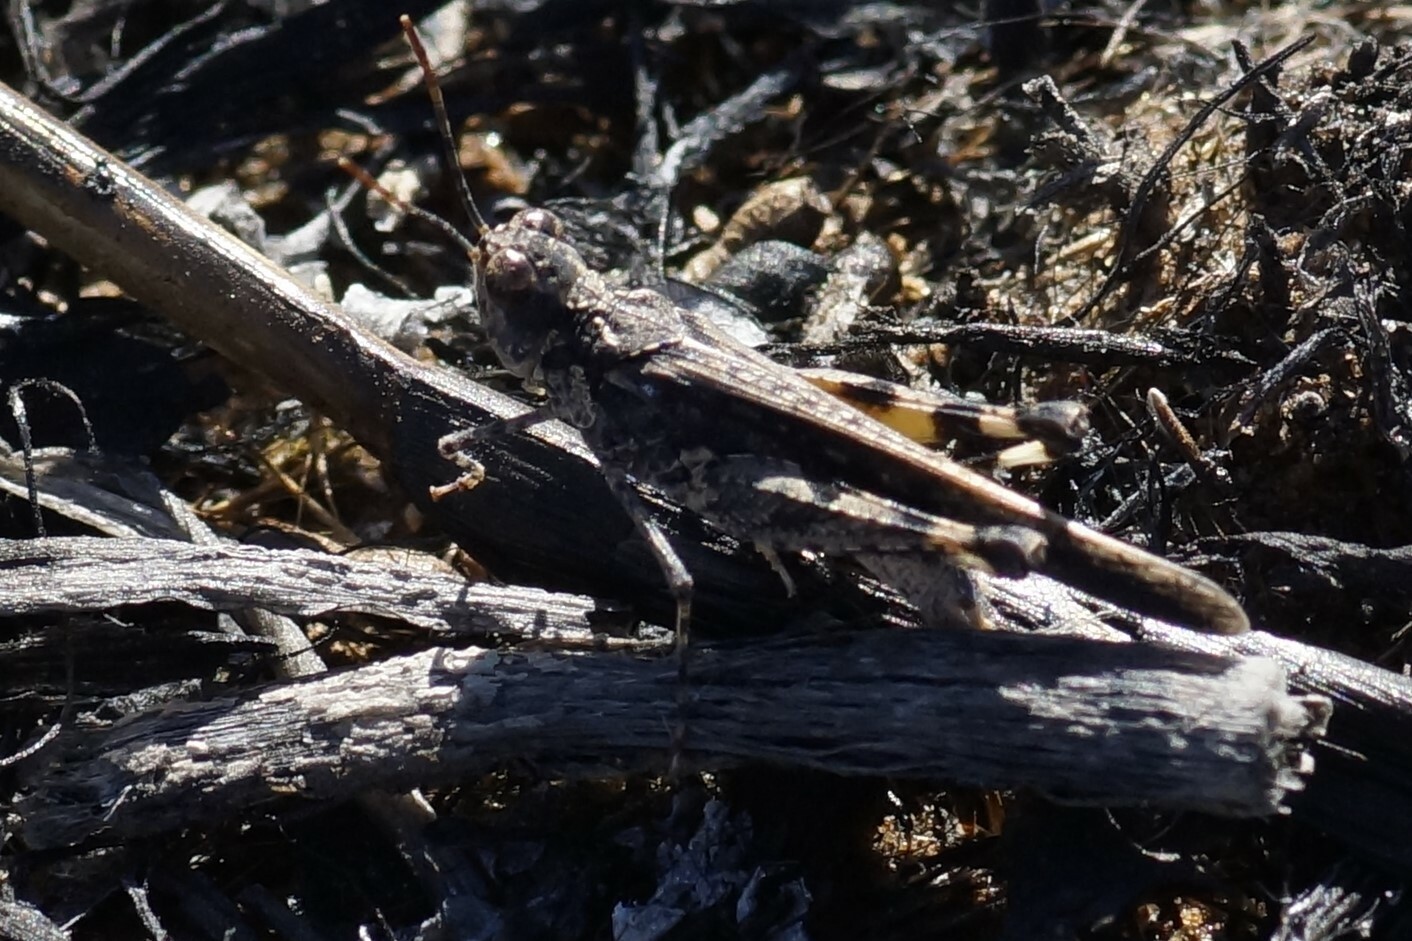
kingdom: Animalia
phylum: Arthropoda
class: Insecta
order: Orthoptera
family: Acrididae
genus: Pycnostictus
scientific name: Pycnostictus seriatus
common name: Common bandwing
